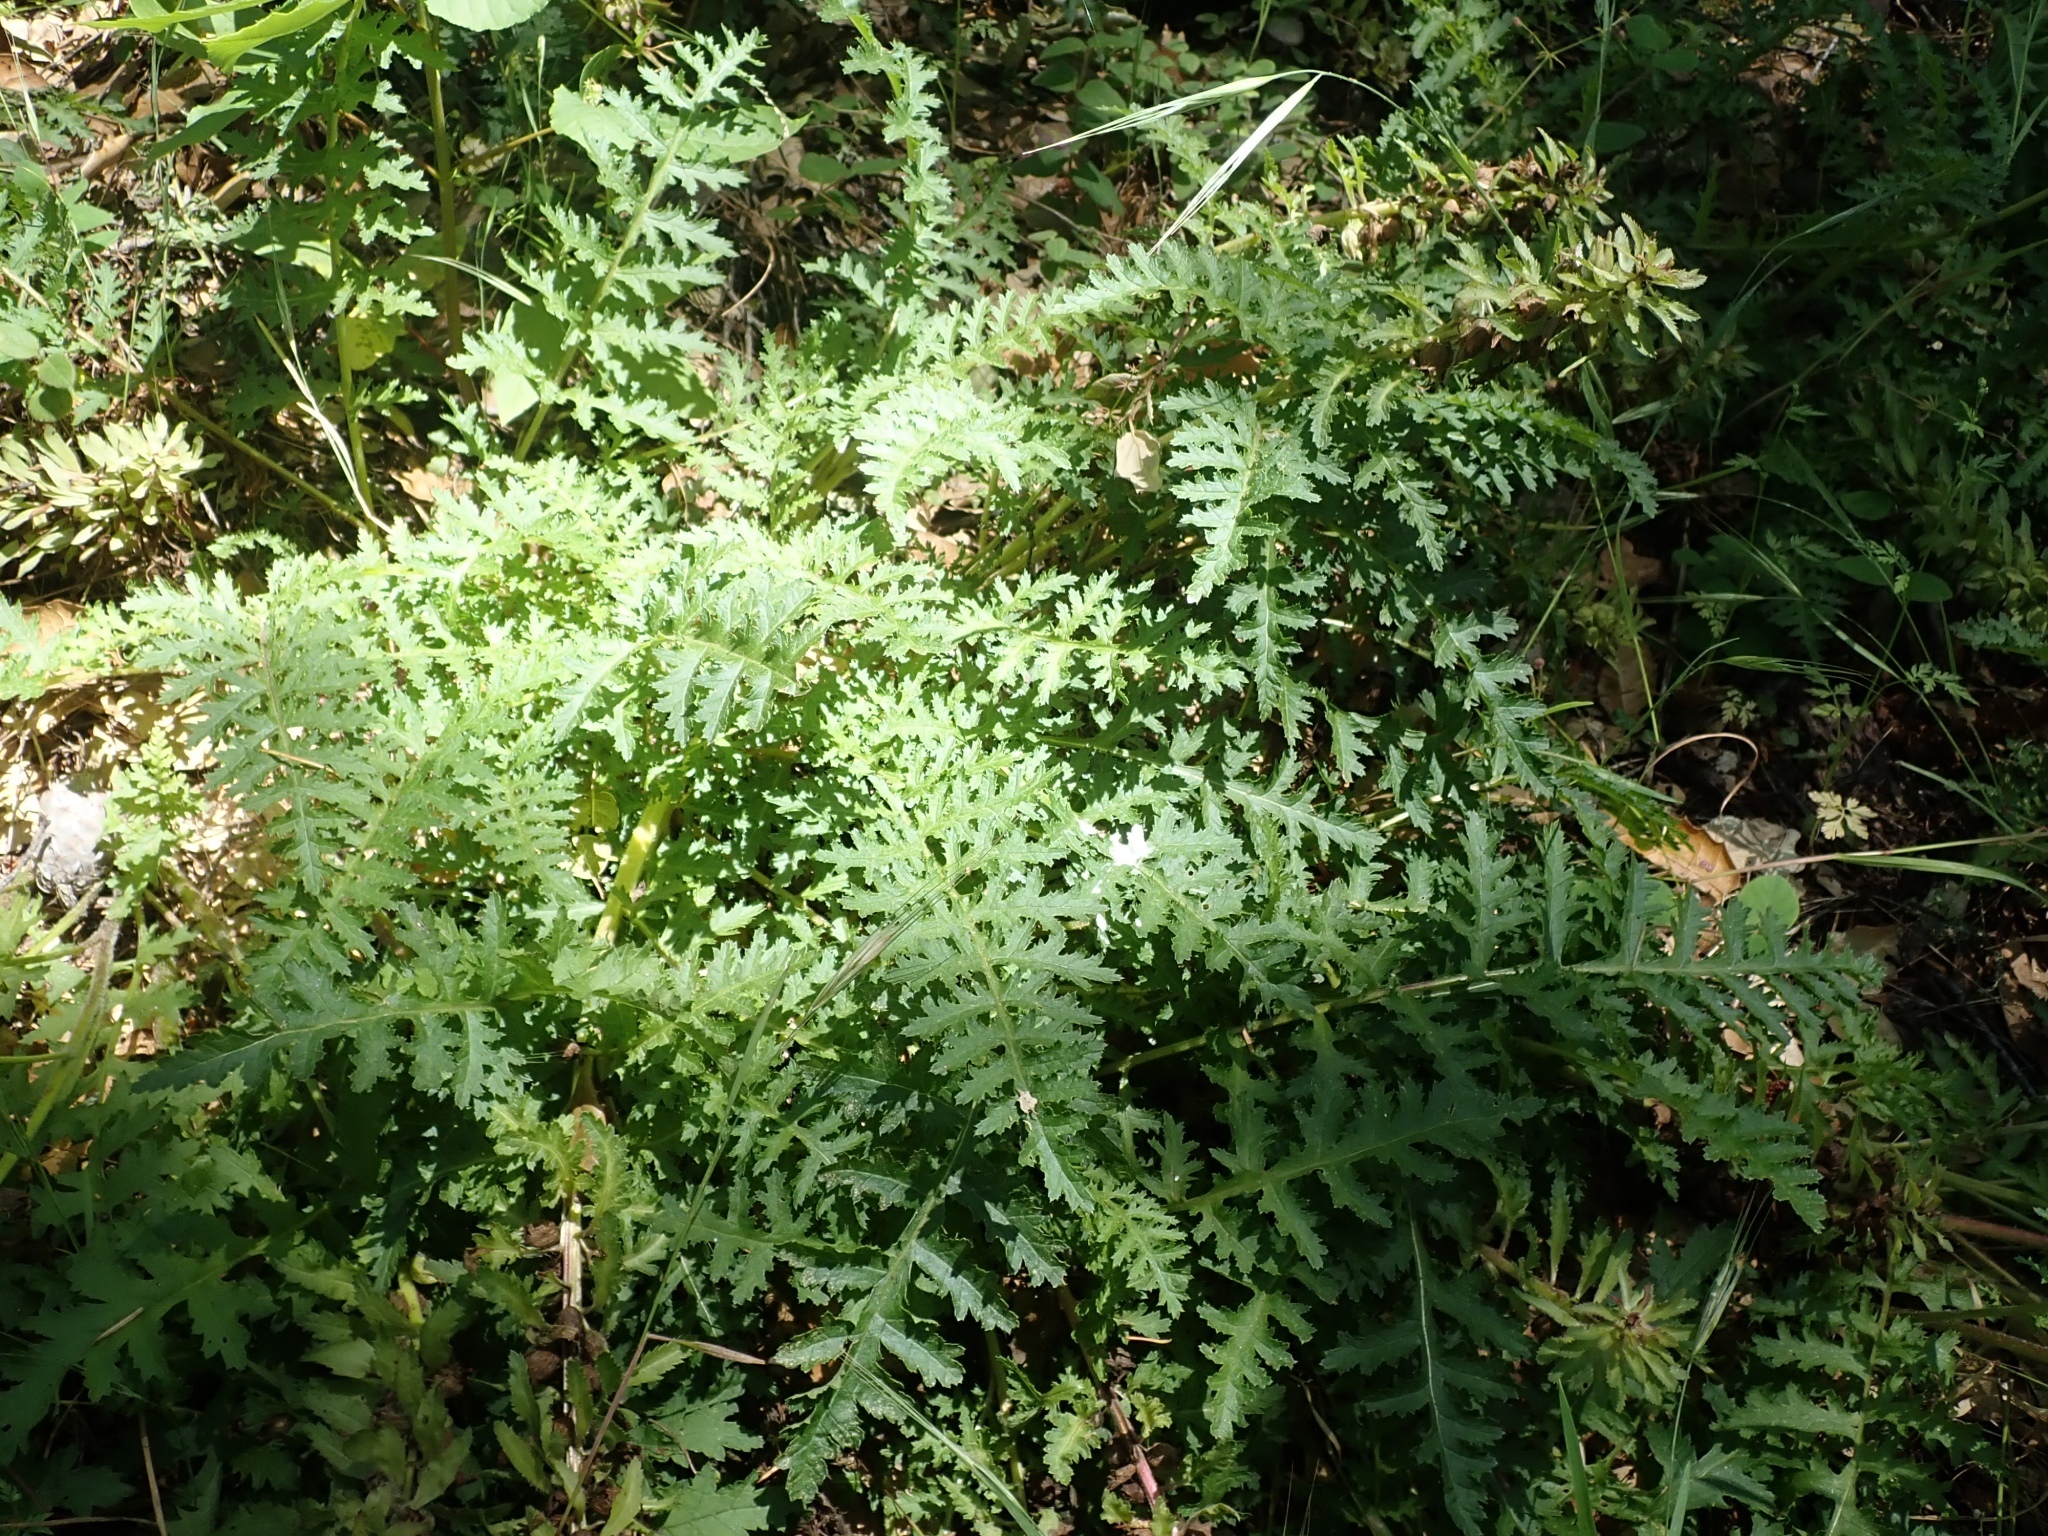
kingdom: Plantae
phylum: Tracheophyta
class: Magnoliopsida
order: Lamiales
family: Orobanchaceae
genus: Pedicularis
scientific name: Pedicularis densiflora
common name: Indian warrior
